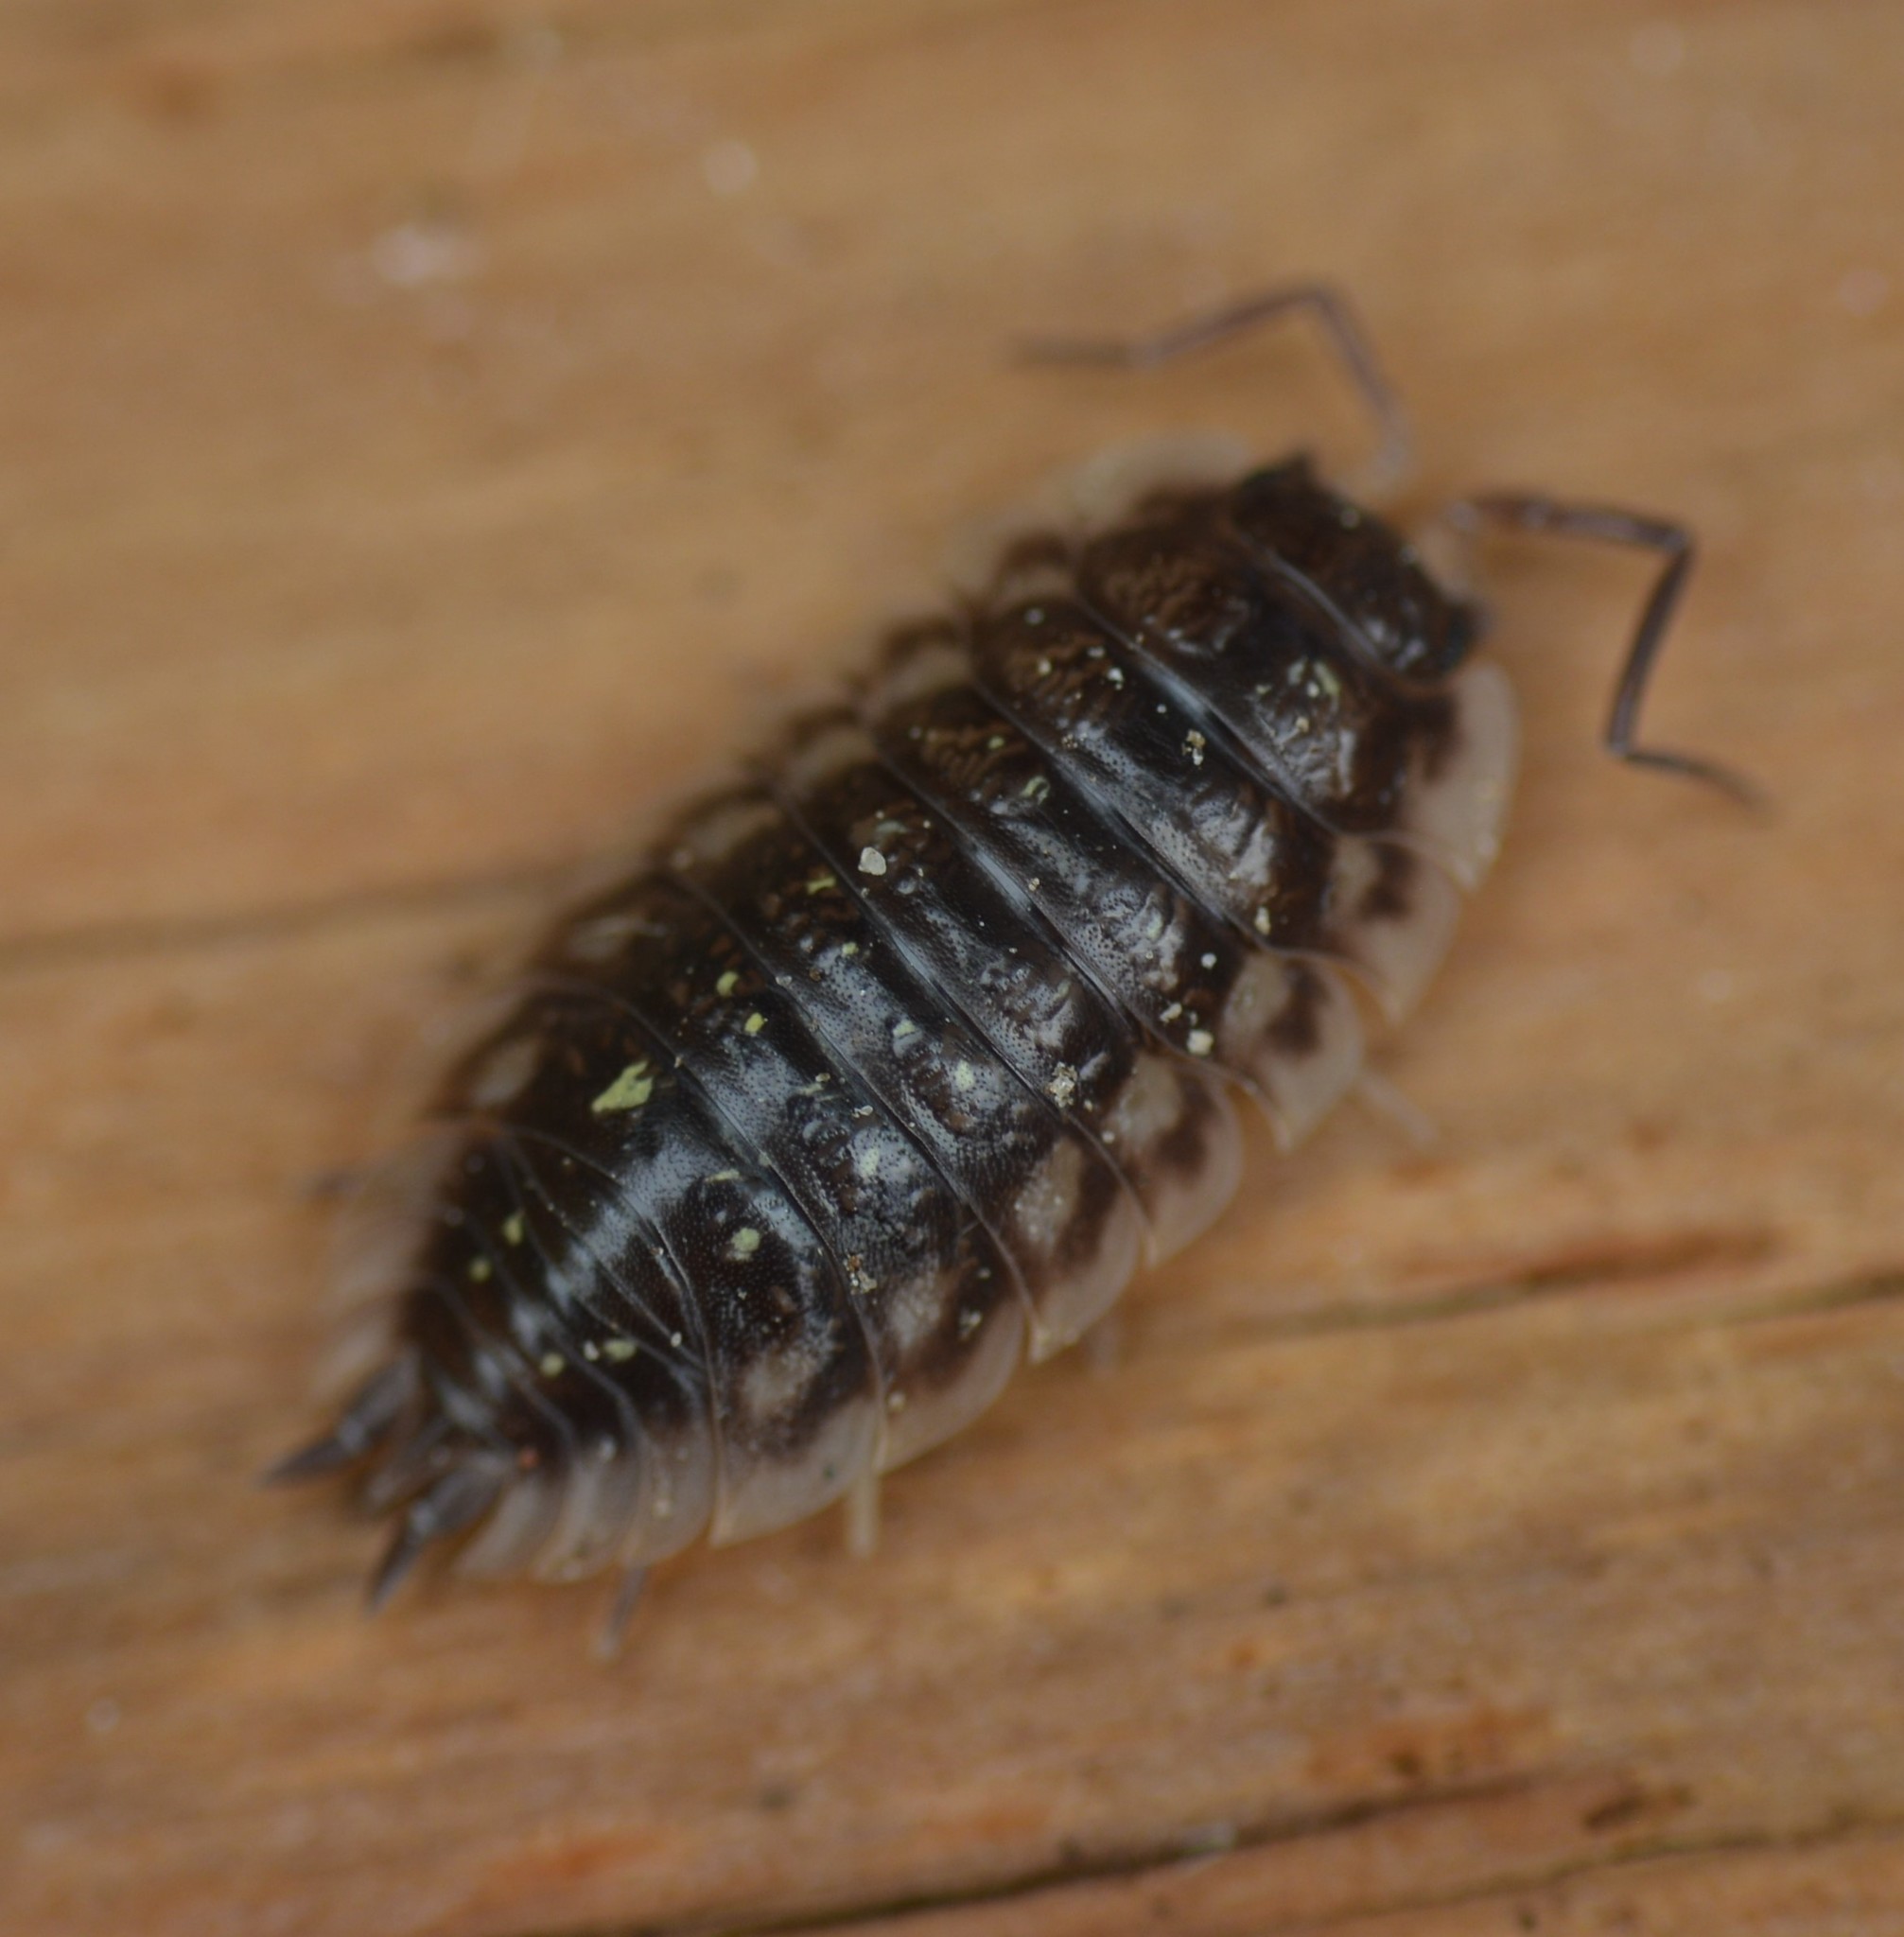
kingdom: Animalia
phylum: Arthropoda
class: Malacostraca
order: Isopoda
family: Oniscidae
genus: Oniscus
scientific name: Oniscus asellus
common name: Common shiny woodlouse
